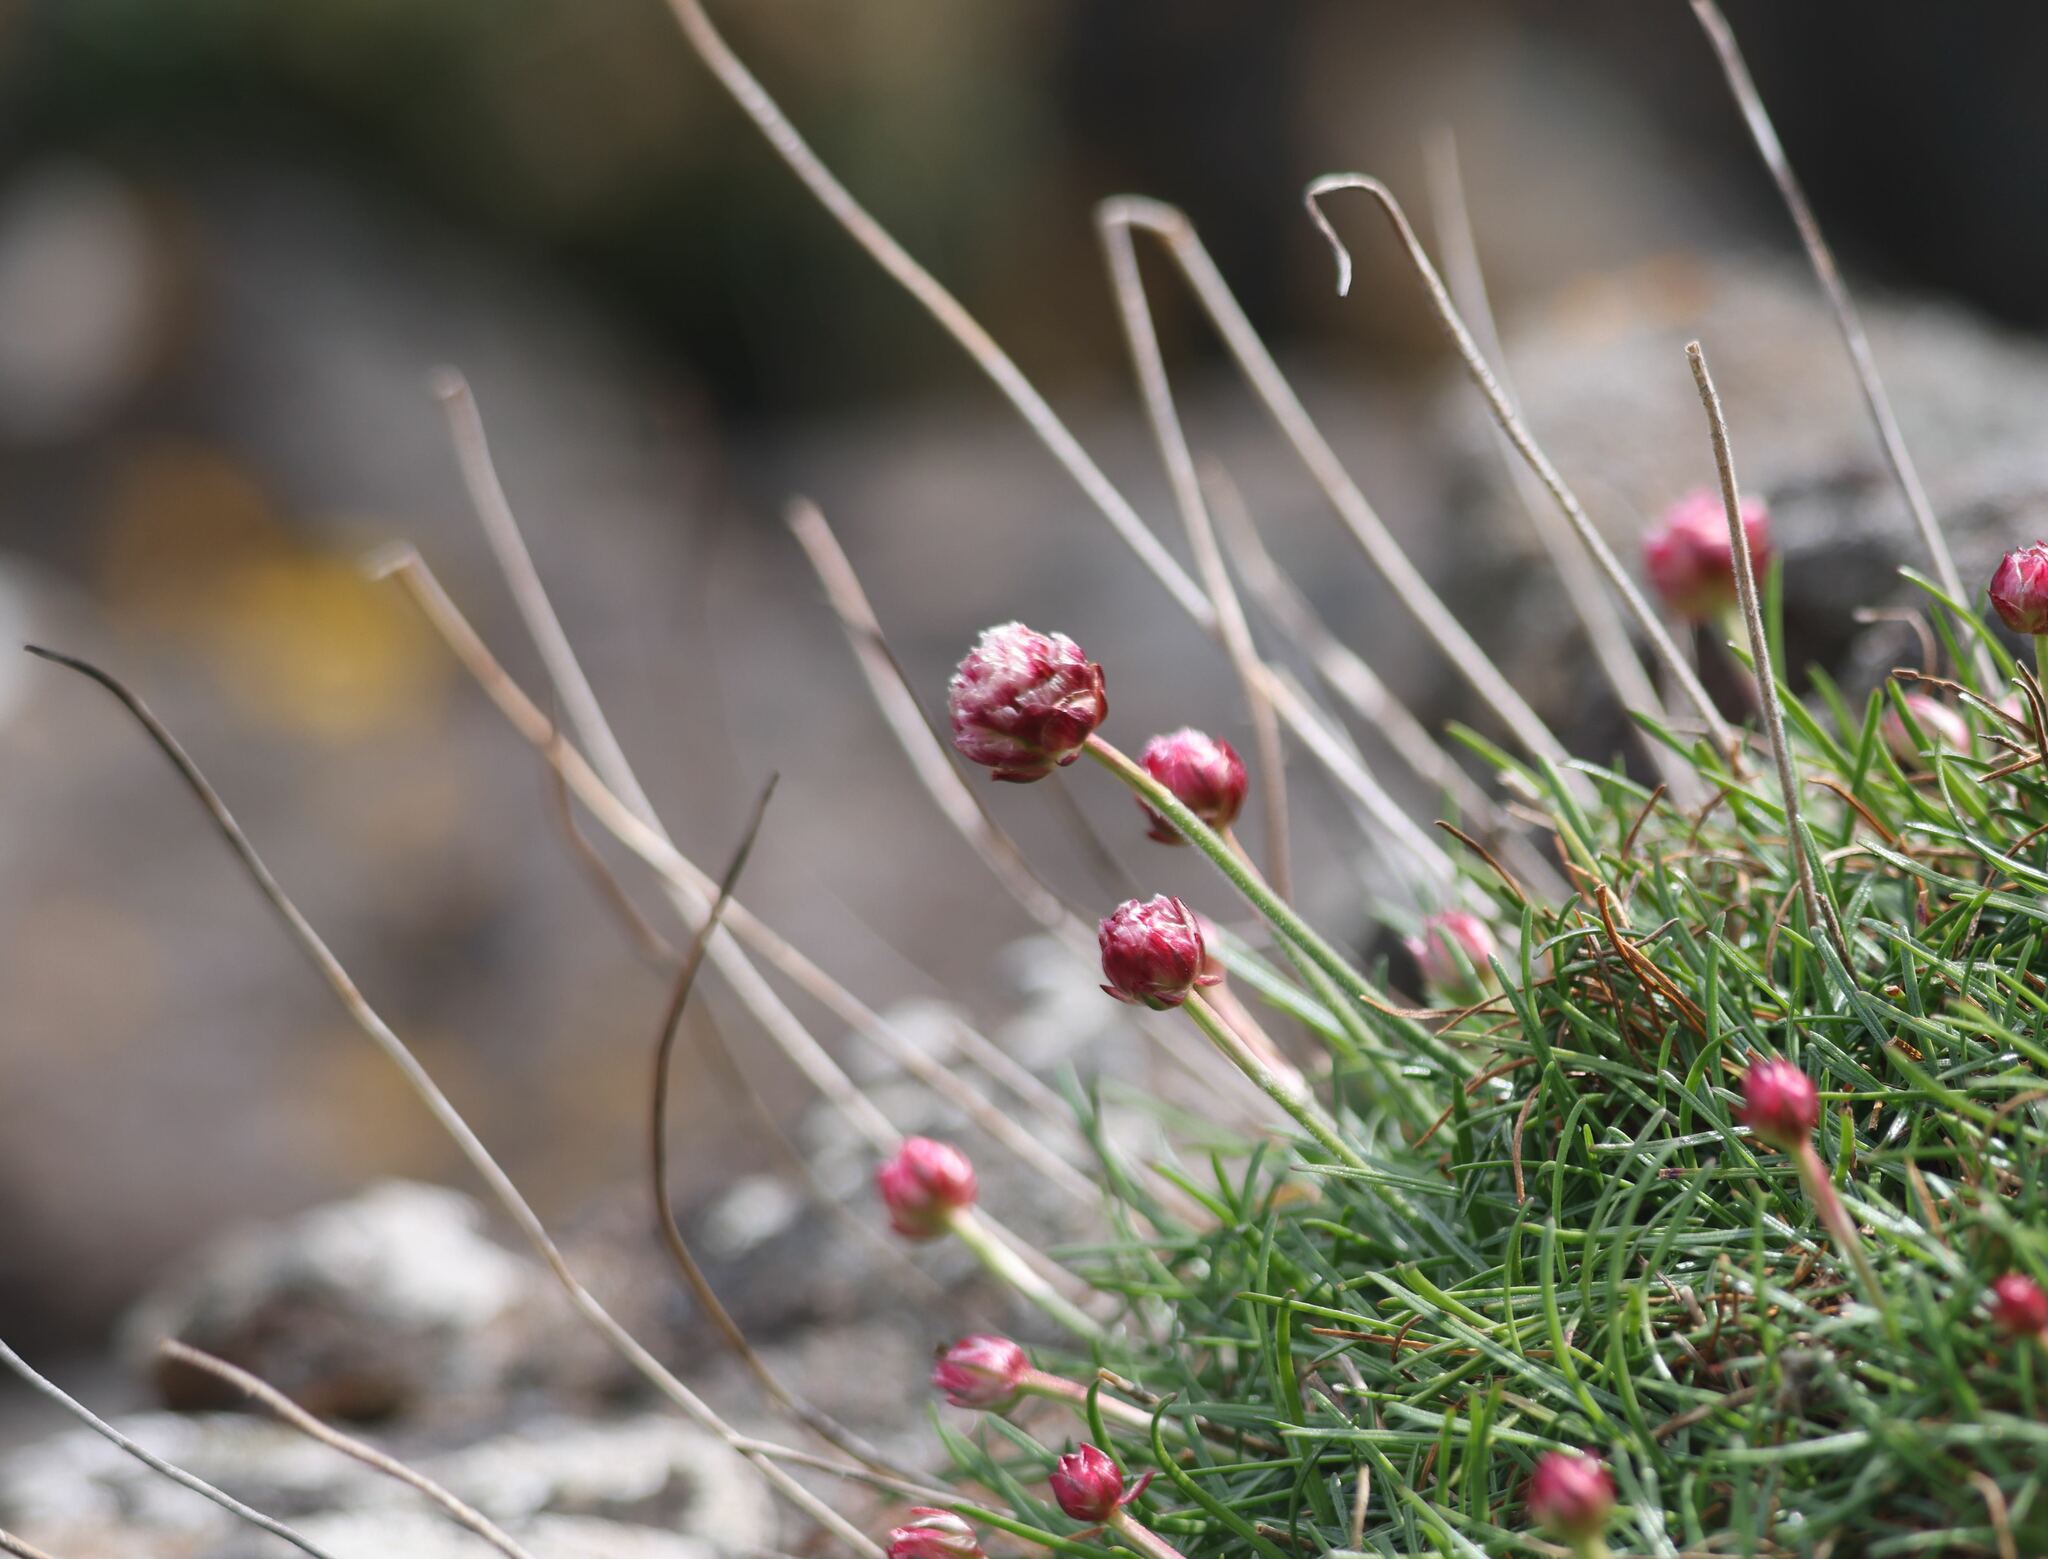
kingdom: Plantae
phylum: Tracheophyta
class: Magnoliopsida
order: Caryophyllales
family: Plumbaginaceae
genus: Armeria
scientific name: Armeria maritima
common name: Thrift
